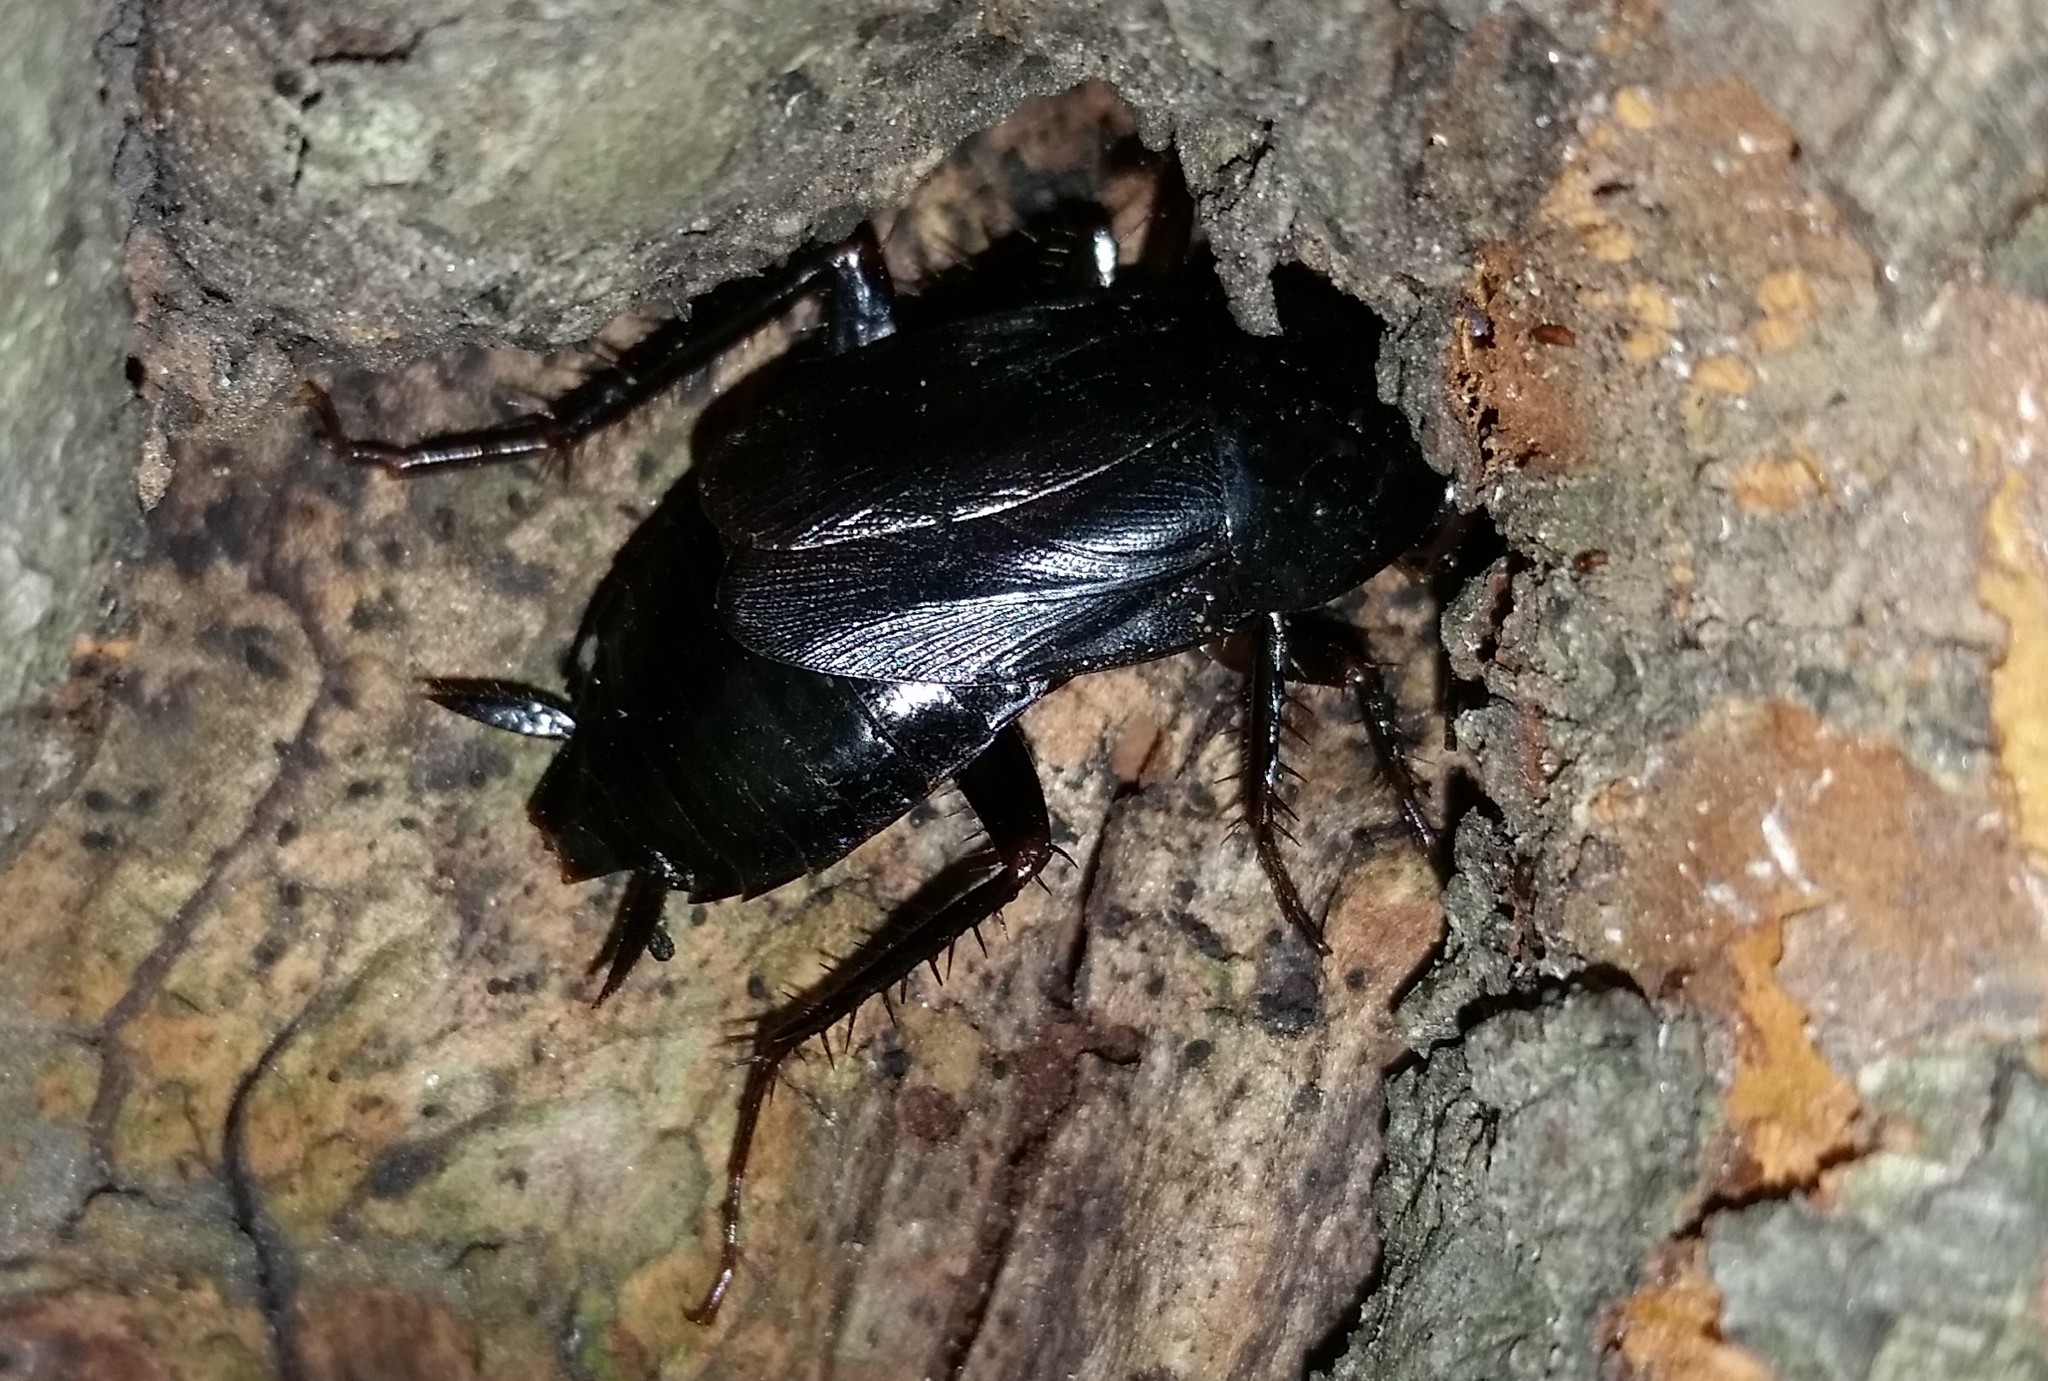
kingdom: Animalia
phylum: Arthropoda
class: Insecta
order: Blattodea
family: Blattidae
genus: Periplaneta
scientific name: Periplaneta japonica
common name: Japanese cockroach
